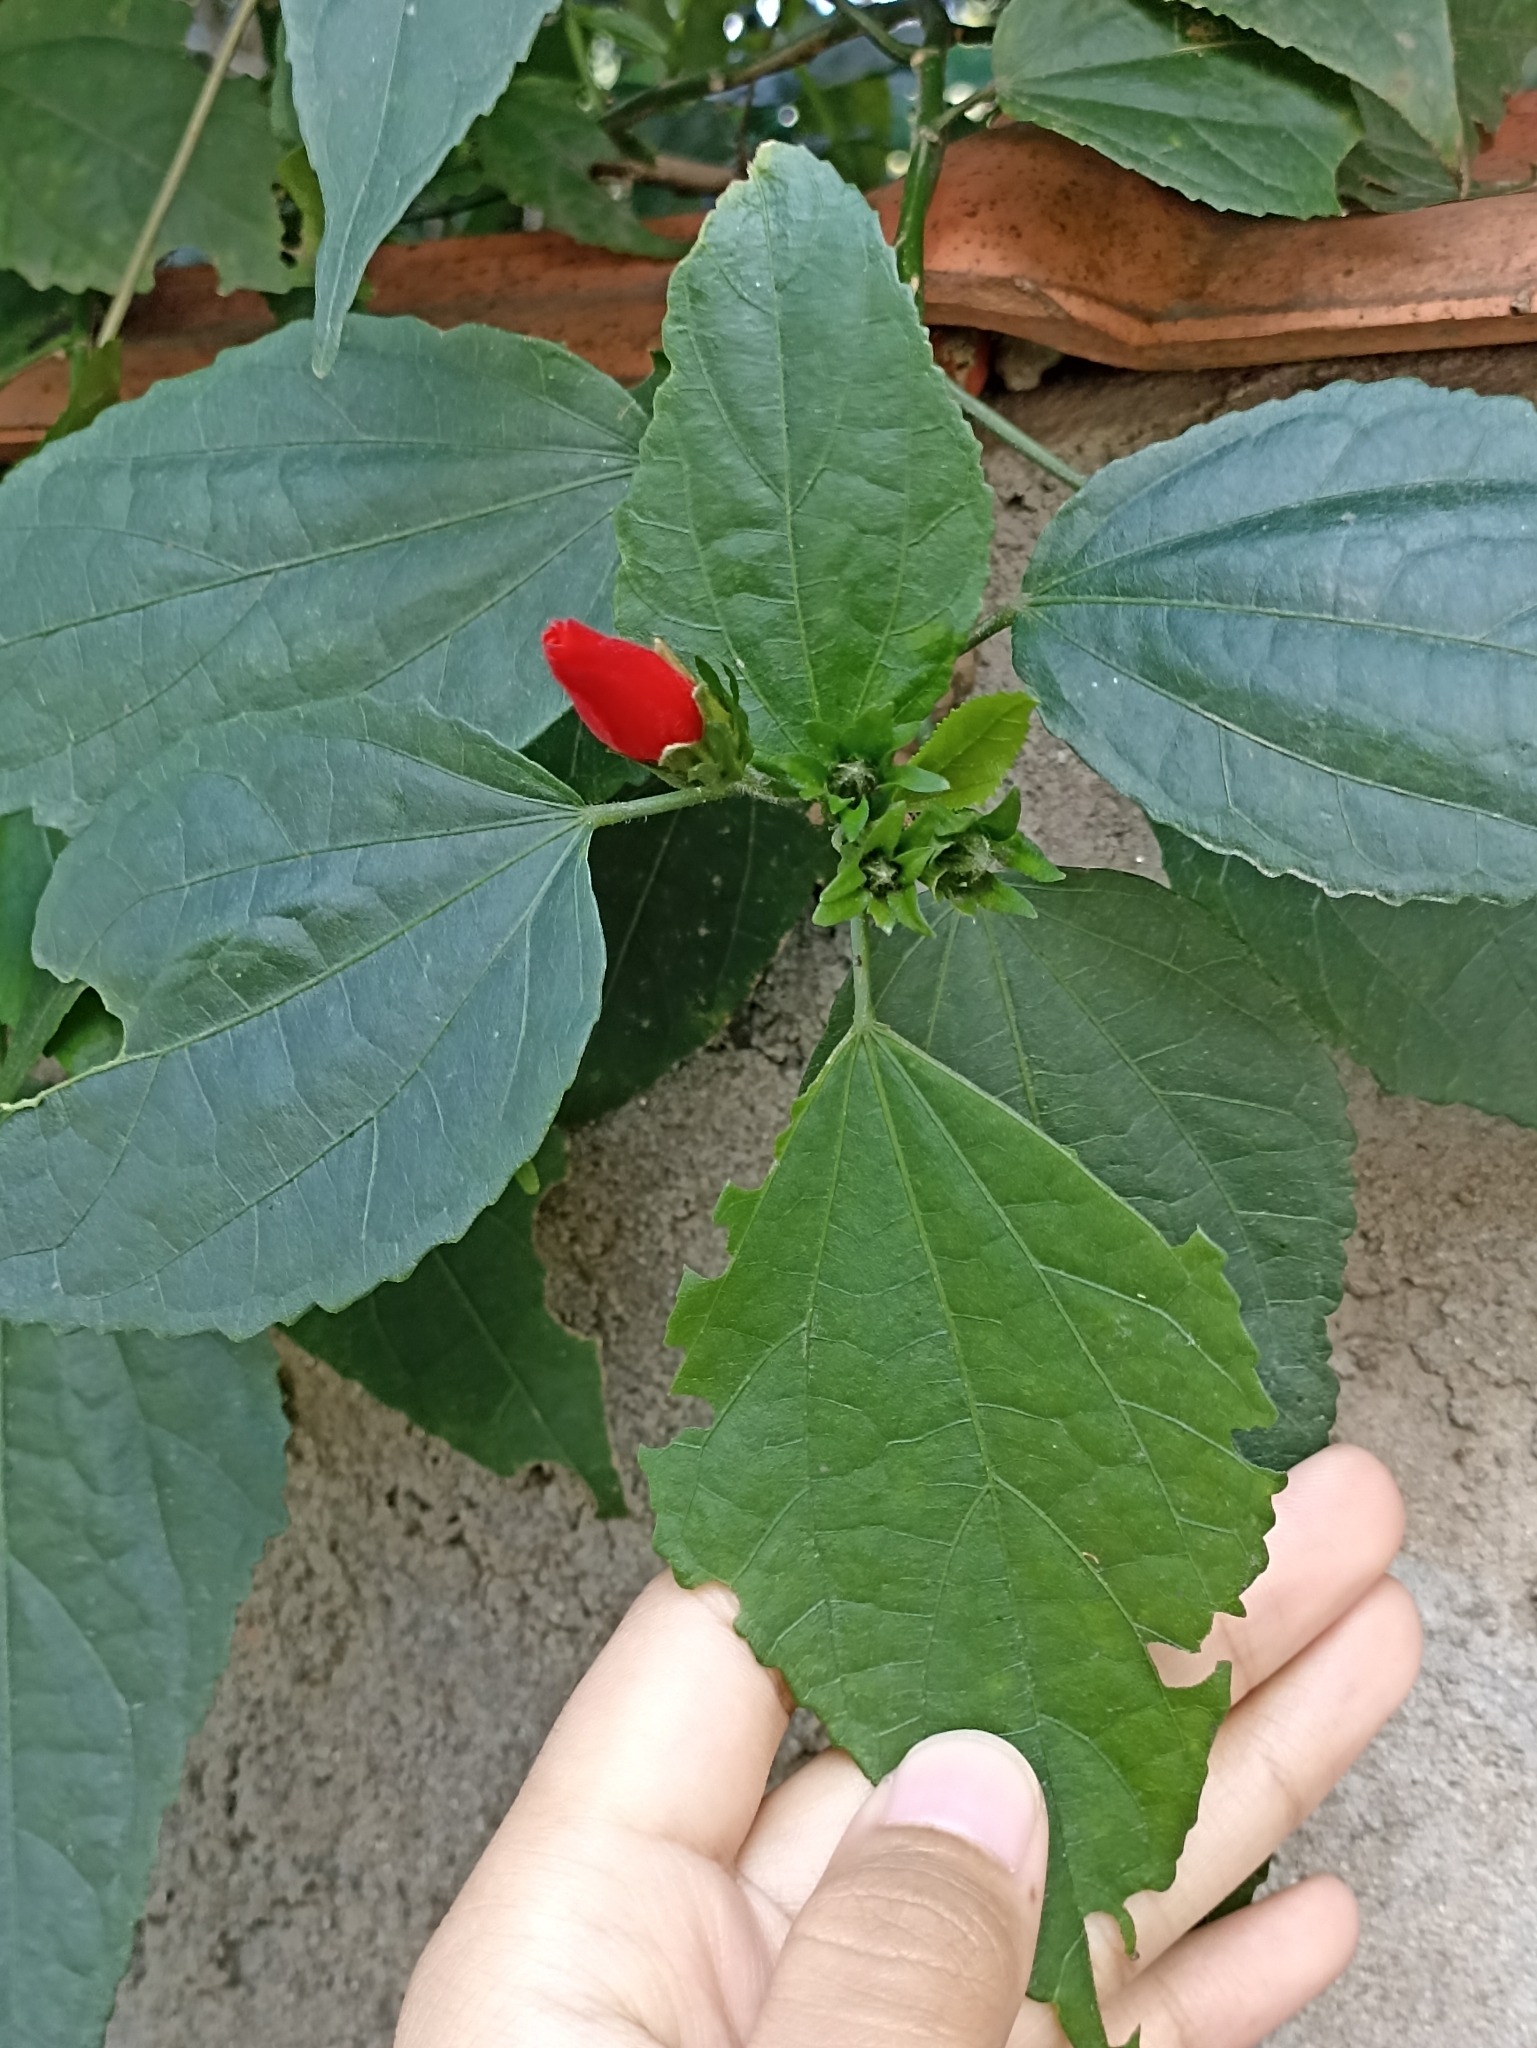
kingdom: Plantae
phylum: Tracheophyta
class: Magnoliopsida
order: Malvales
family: Malvaceae
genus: Malvaviscus
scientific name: Malvaviscus penduliflorus
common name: Mazapan
